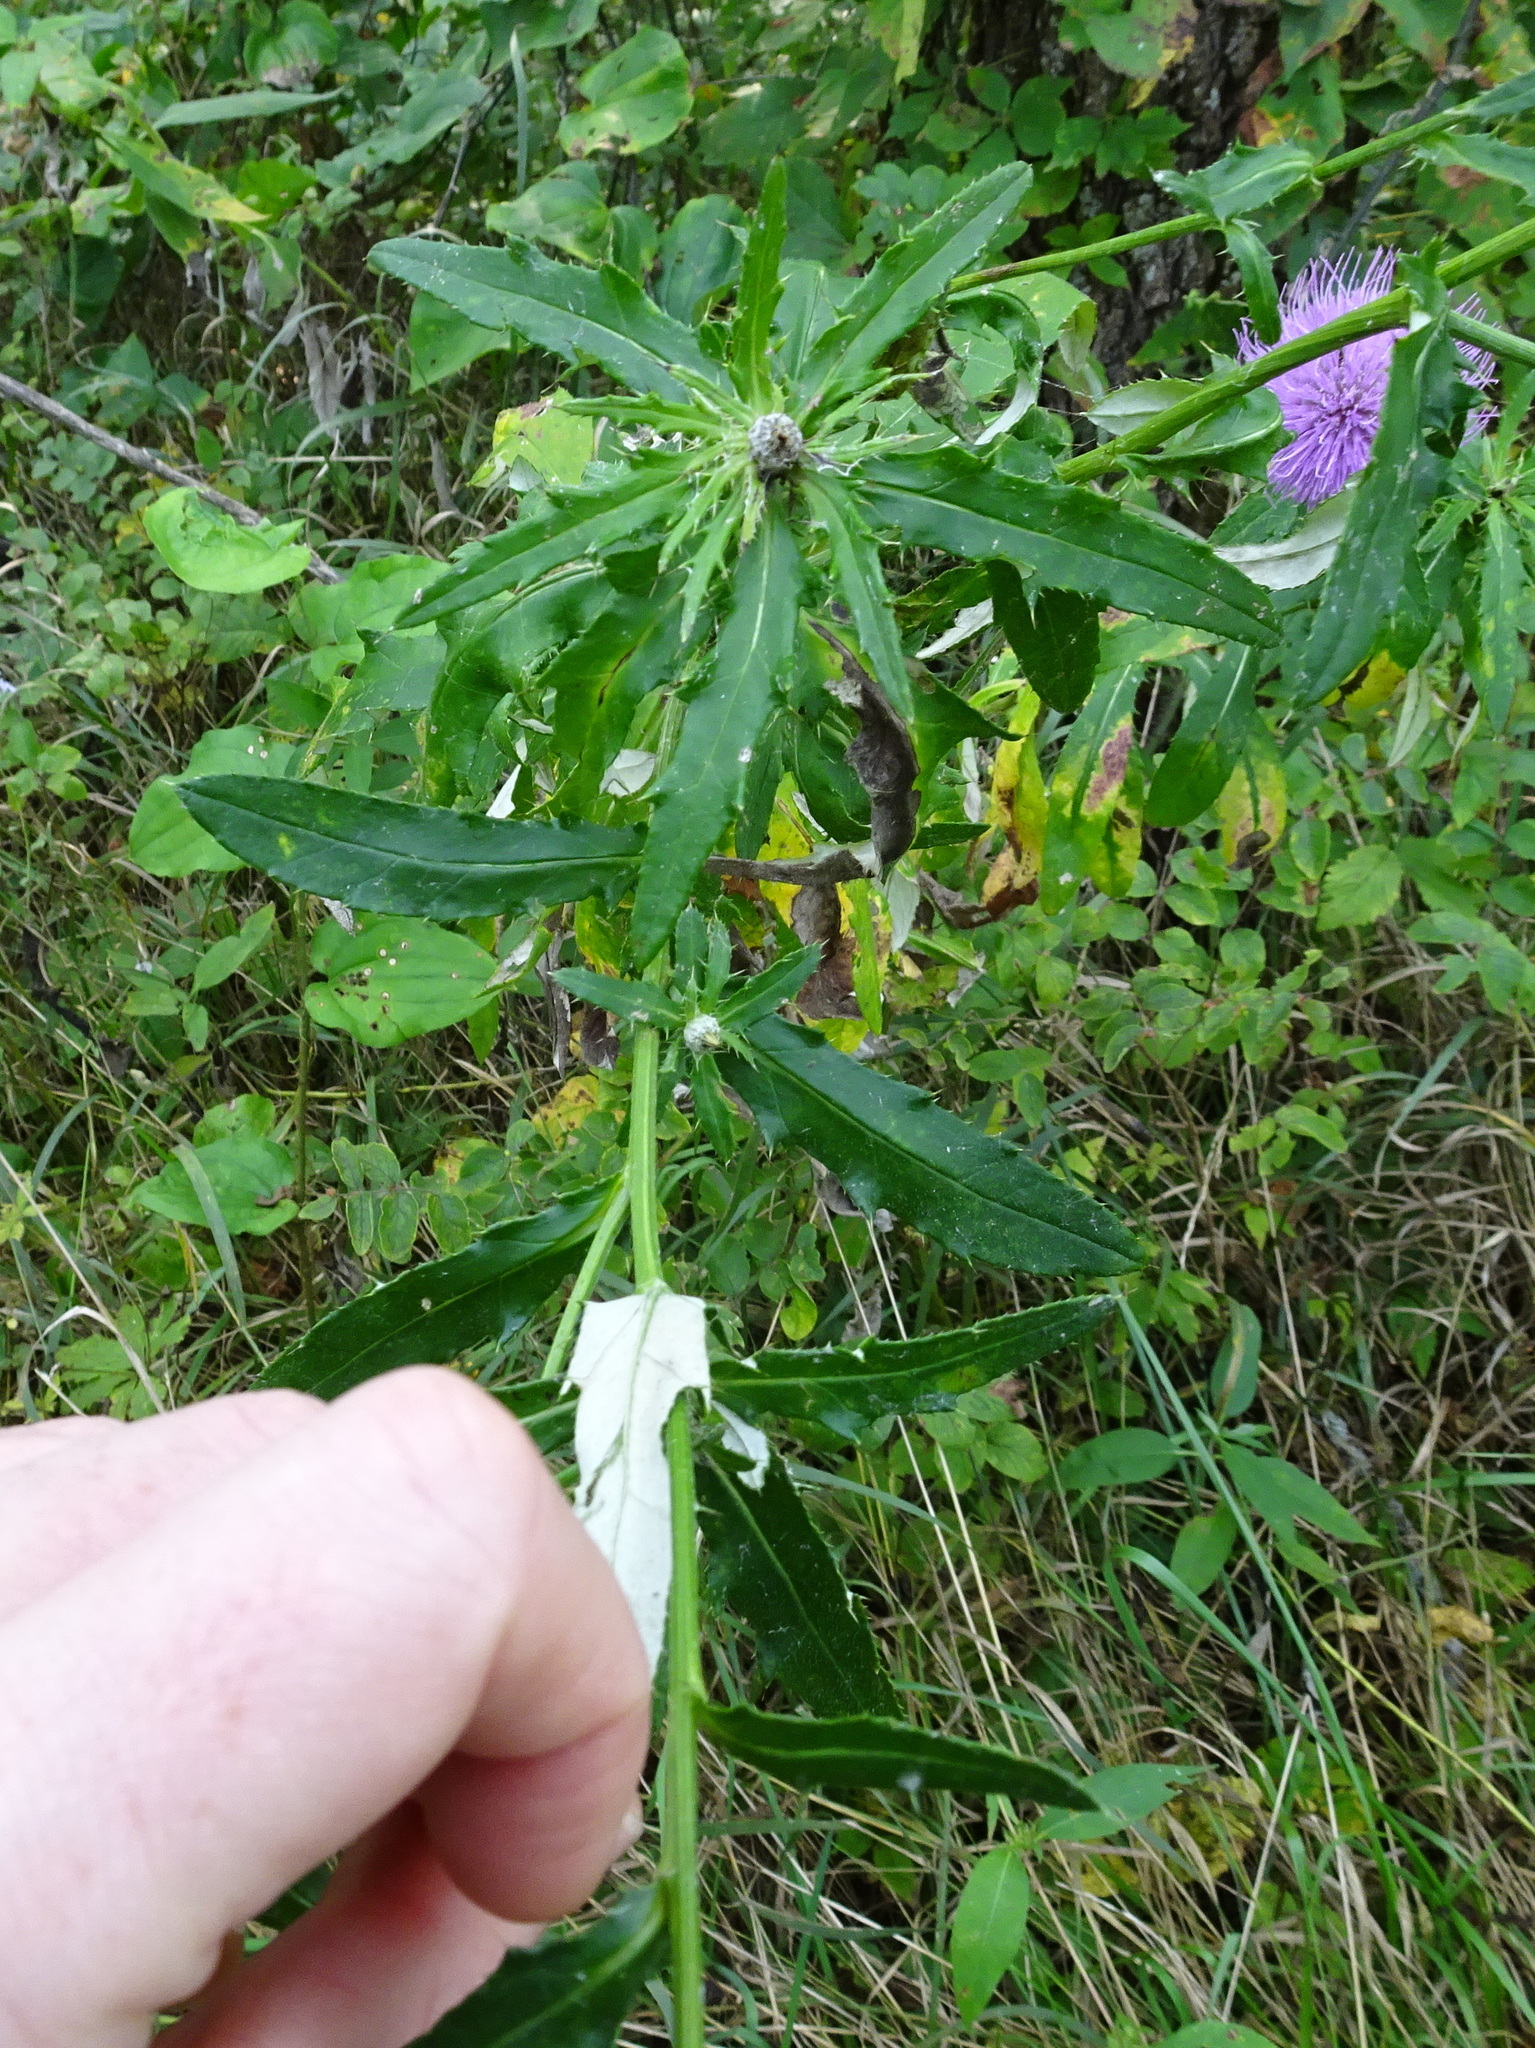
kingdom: Plantae
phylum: Tracheophyta
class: Magnoliopsida
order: Asterales
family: Asteraceae
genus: Cirsium
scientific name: Cirsium altissimum
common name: Roadside thistle
